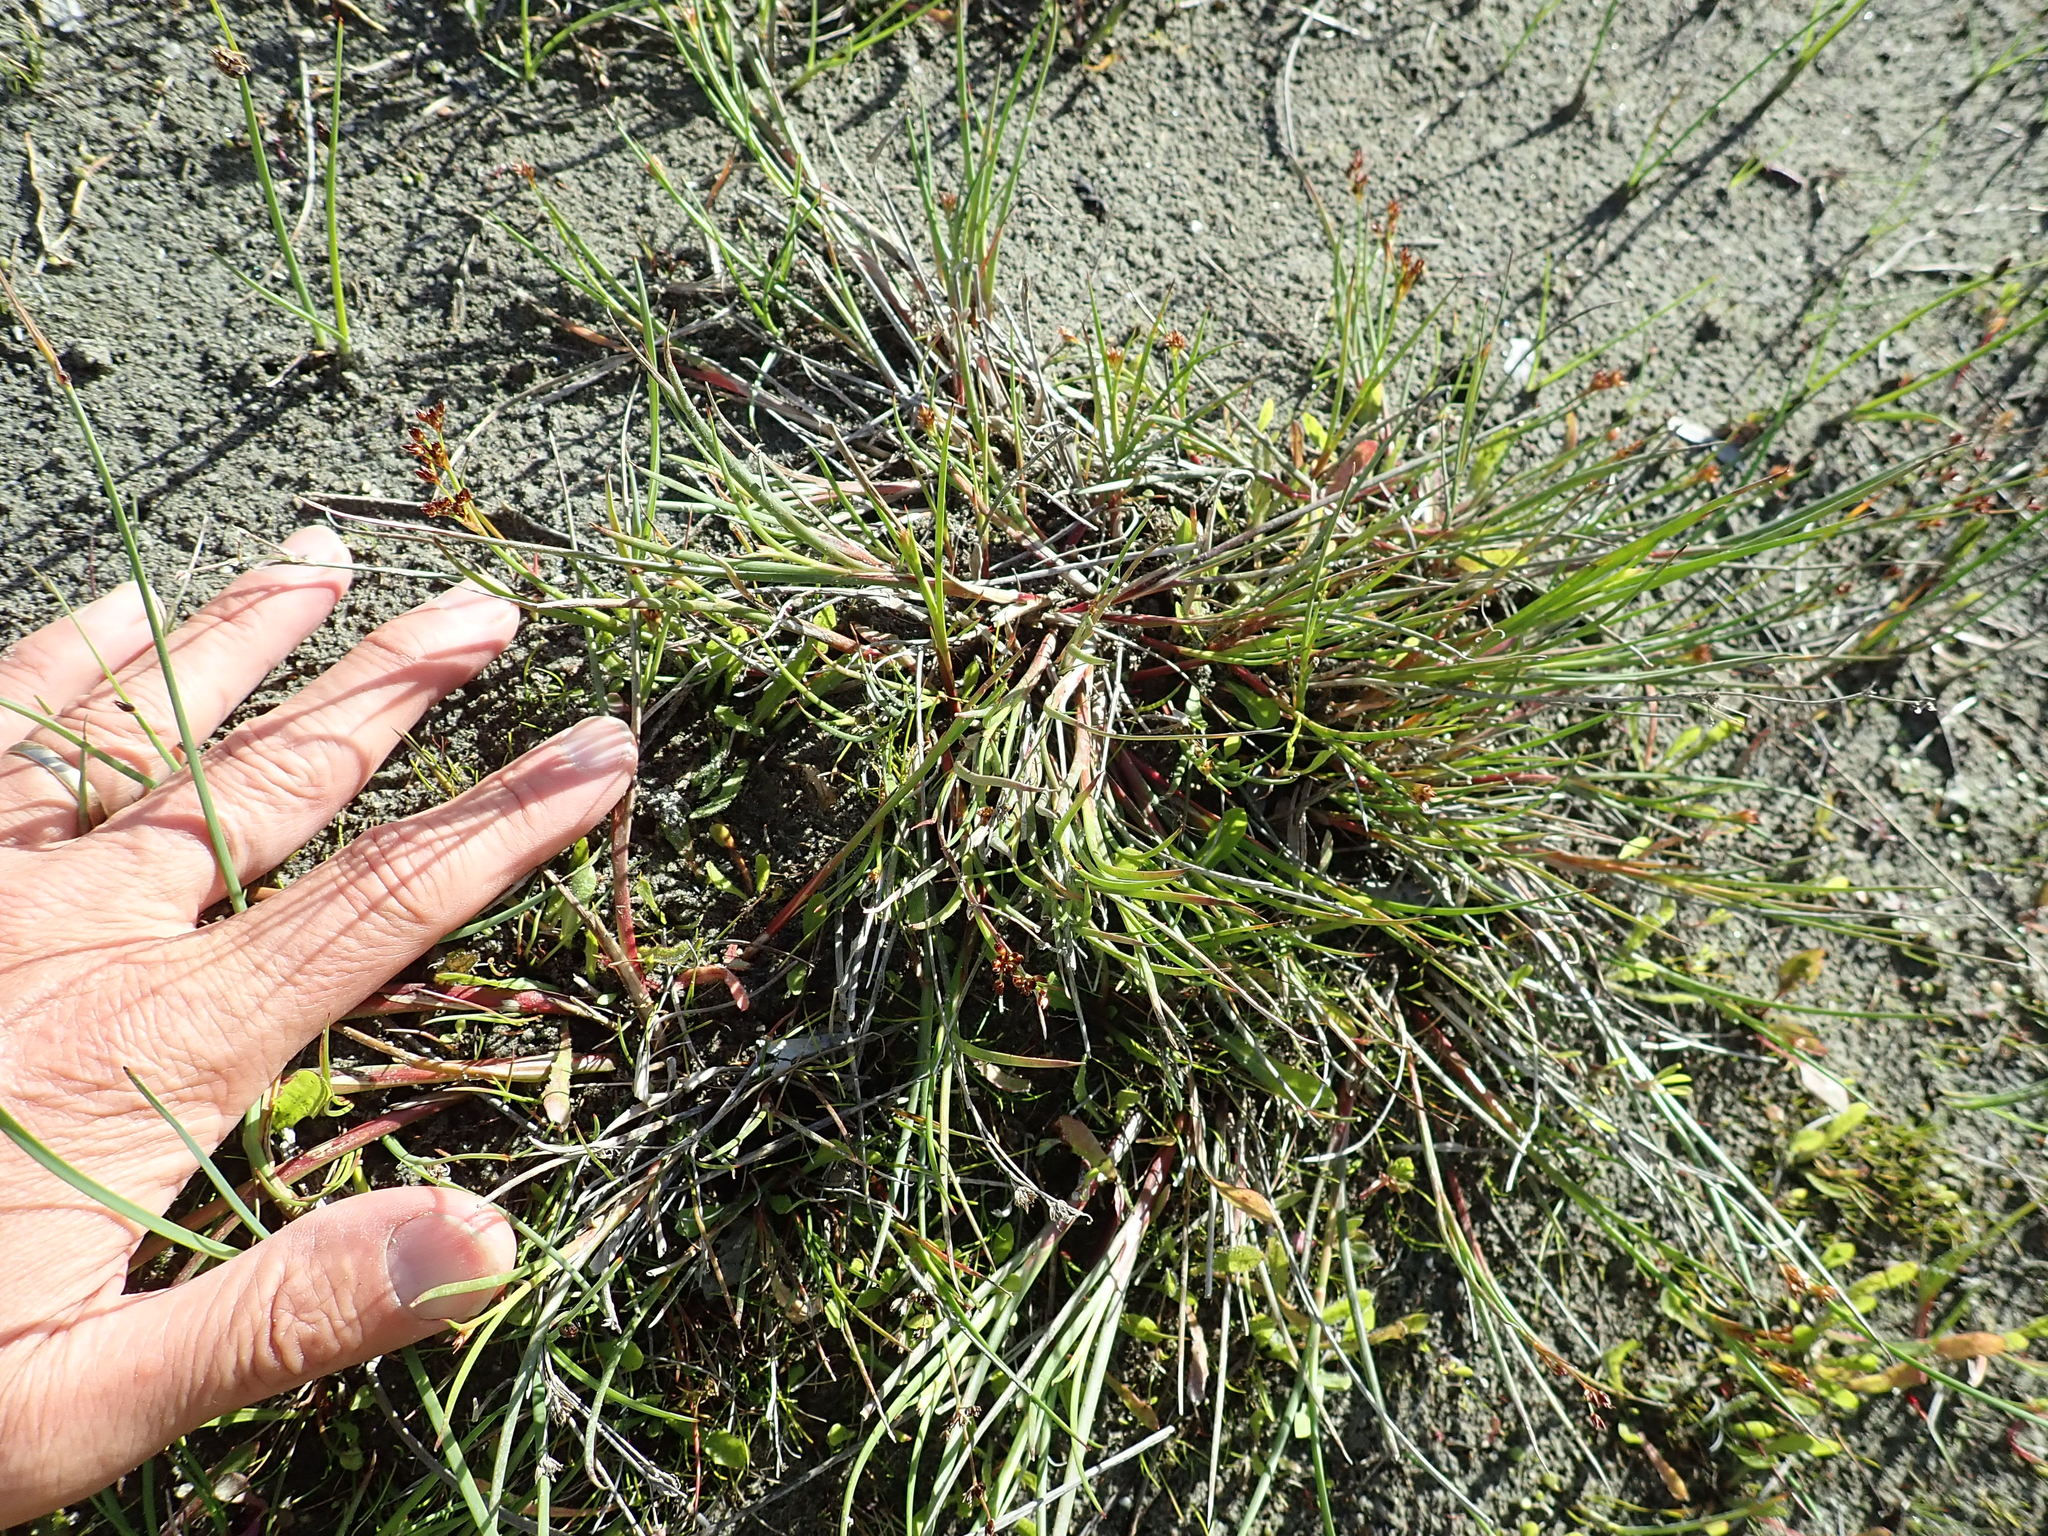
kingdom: Plantae
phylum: Tracheophyta
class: Liliopsida
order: Poales
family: Juncaceae
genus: Juncus
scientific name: Juncus articulatus
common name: Jointed rush
